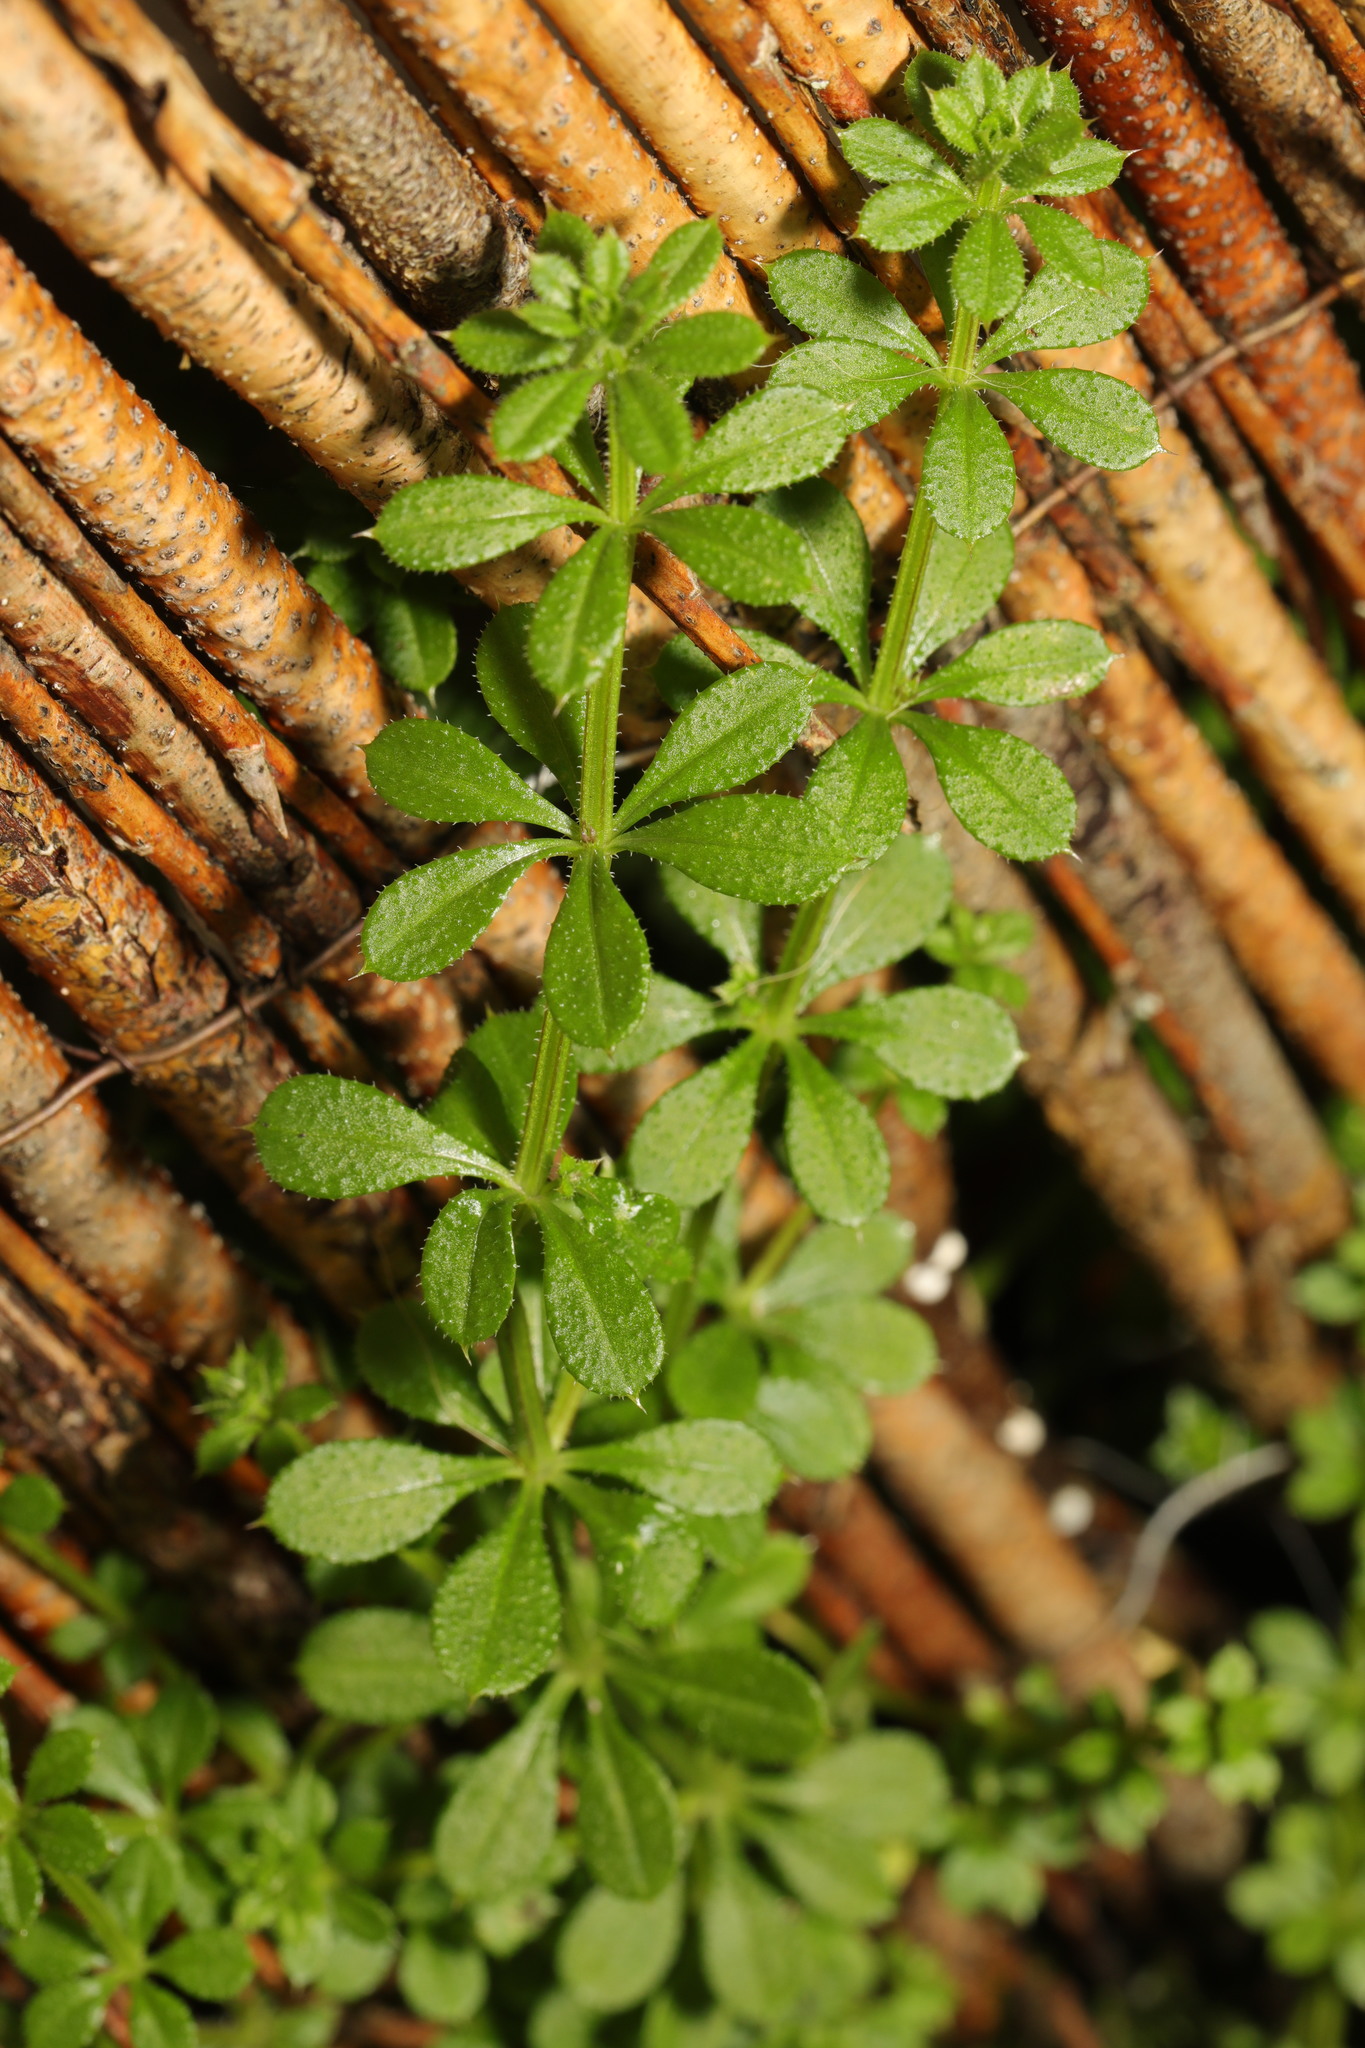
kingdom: Plantae
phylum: Tracheophyta
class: Magnoliopsida
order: Gentianales
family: Rubiaceae
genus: Galium
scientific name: Galium aparine
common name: Cleavers
